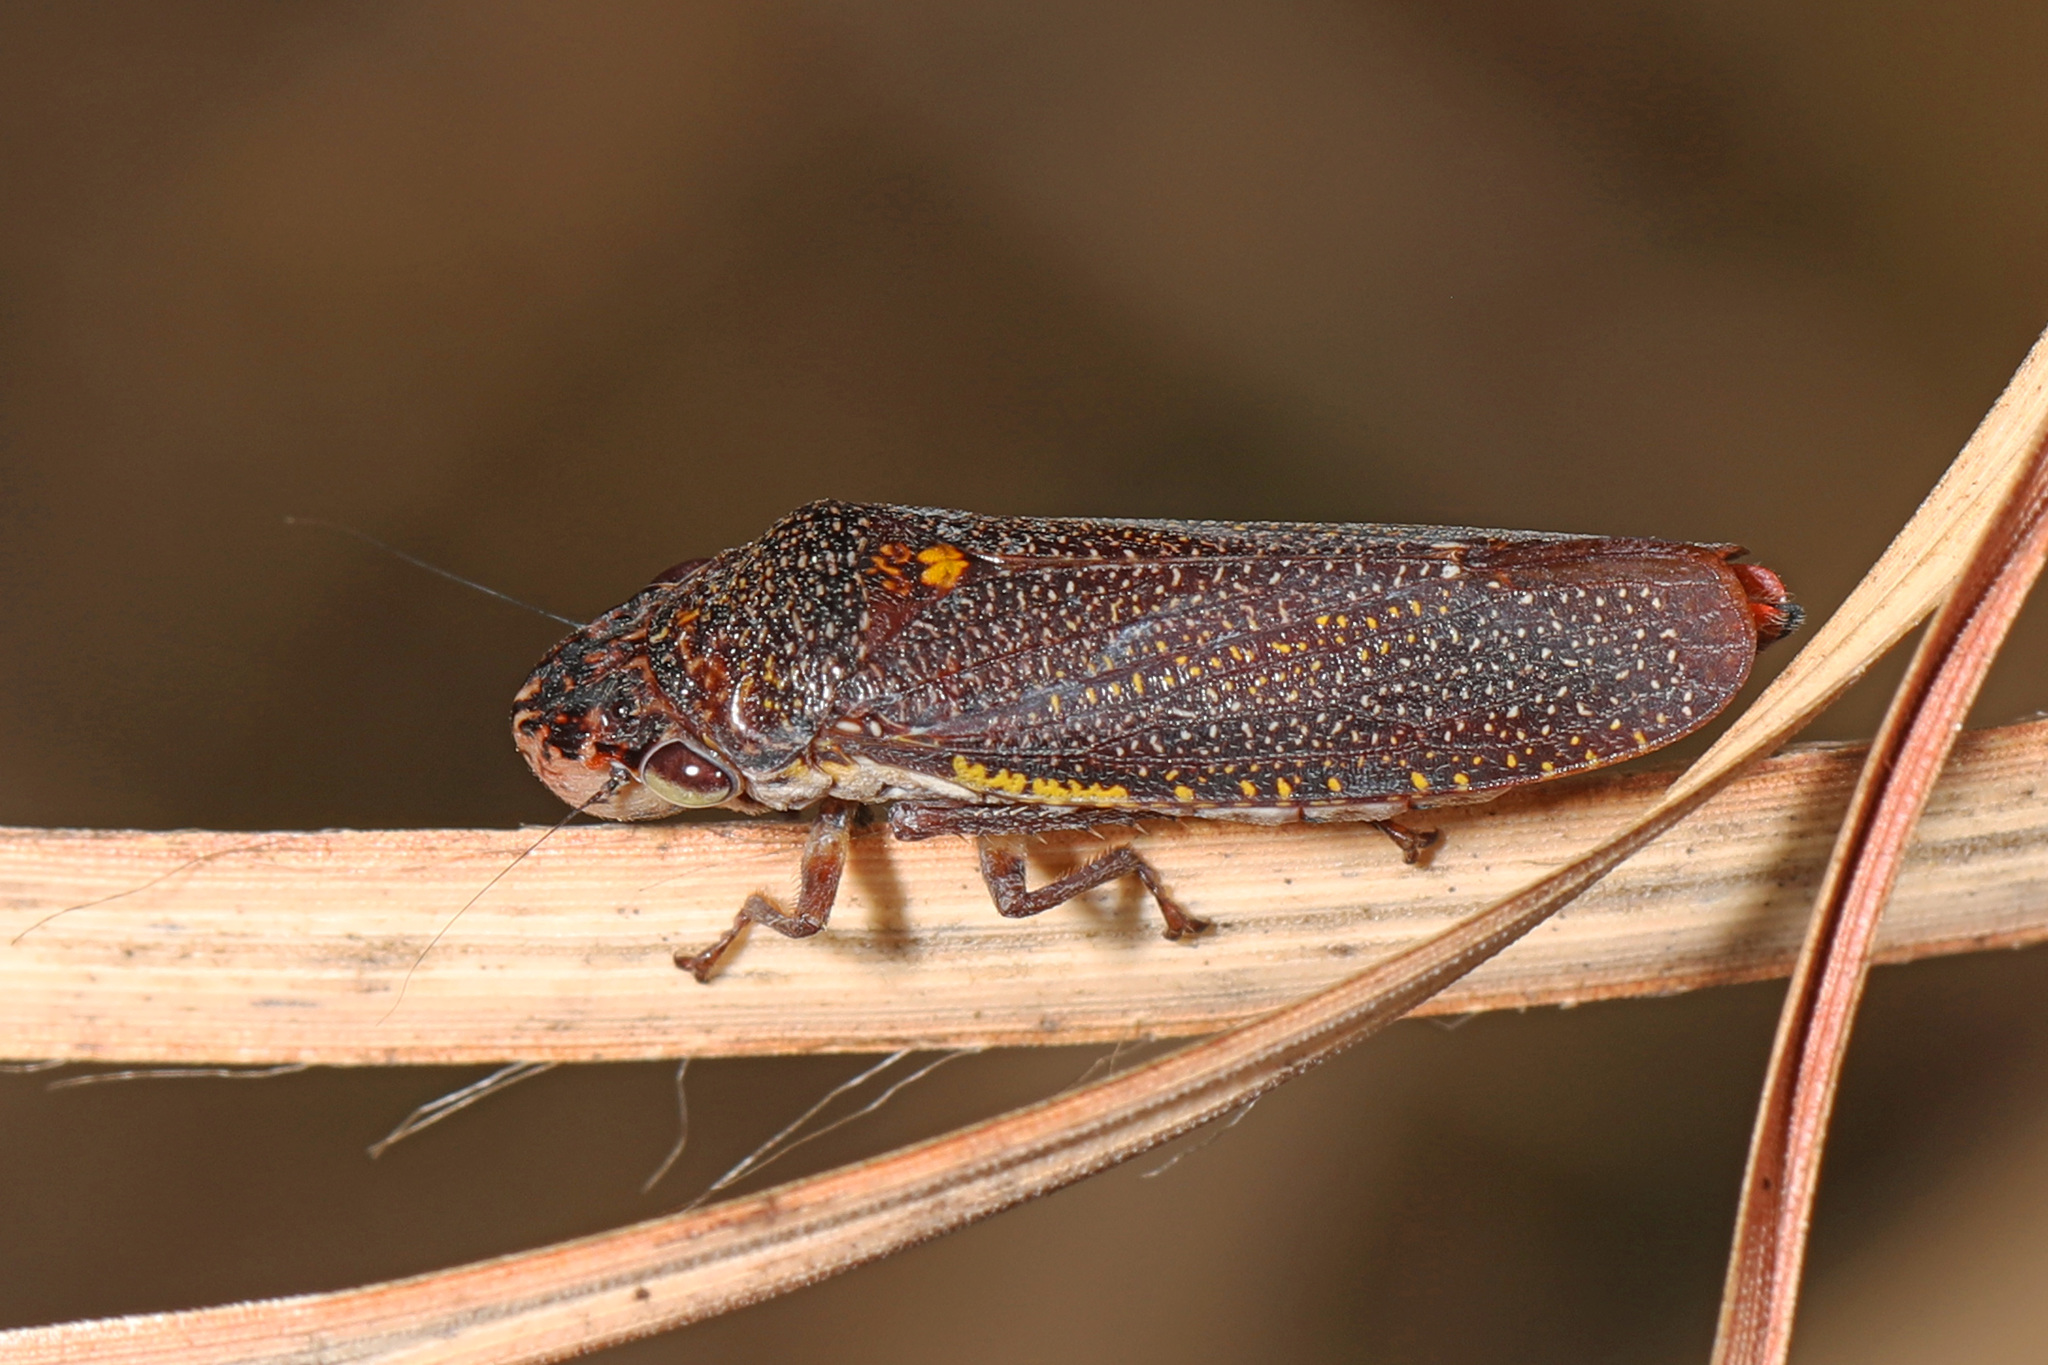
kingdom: Animalia
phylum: Arthropoda
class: Insecta
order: Hemiptera
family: Cicadellidae
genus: Paraulacizes
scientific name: Paraulacizes irrorata
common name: Speckled sharpshooter
